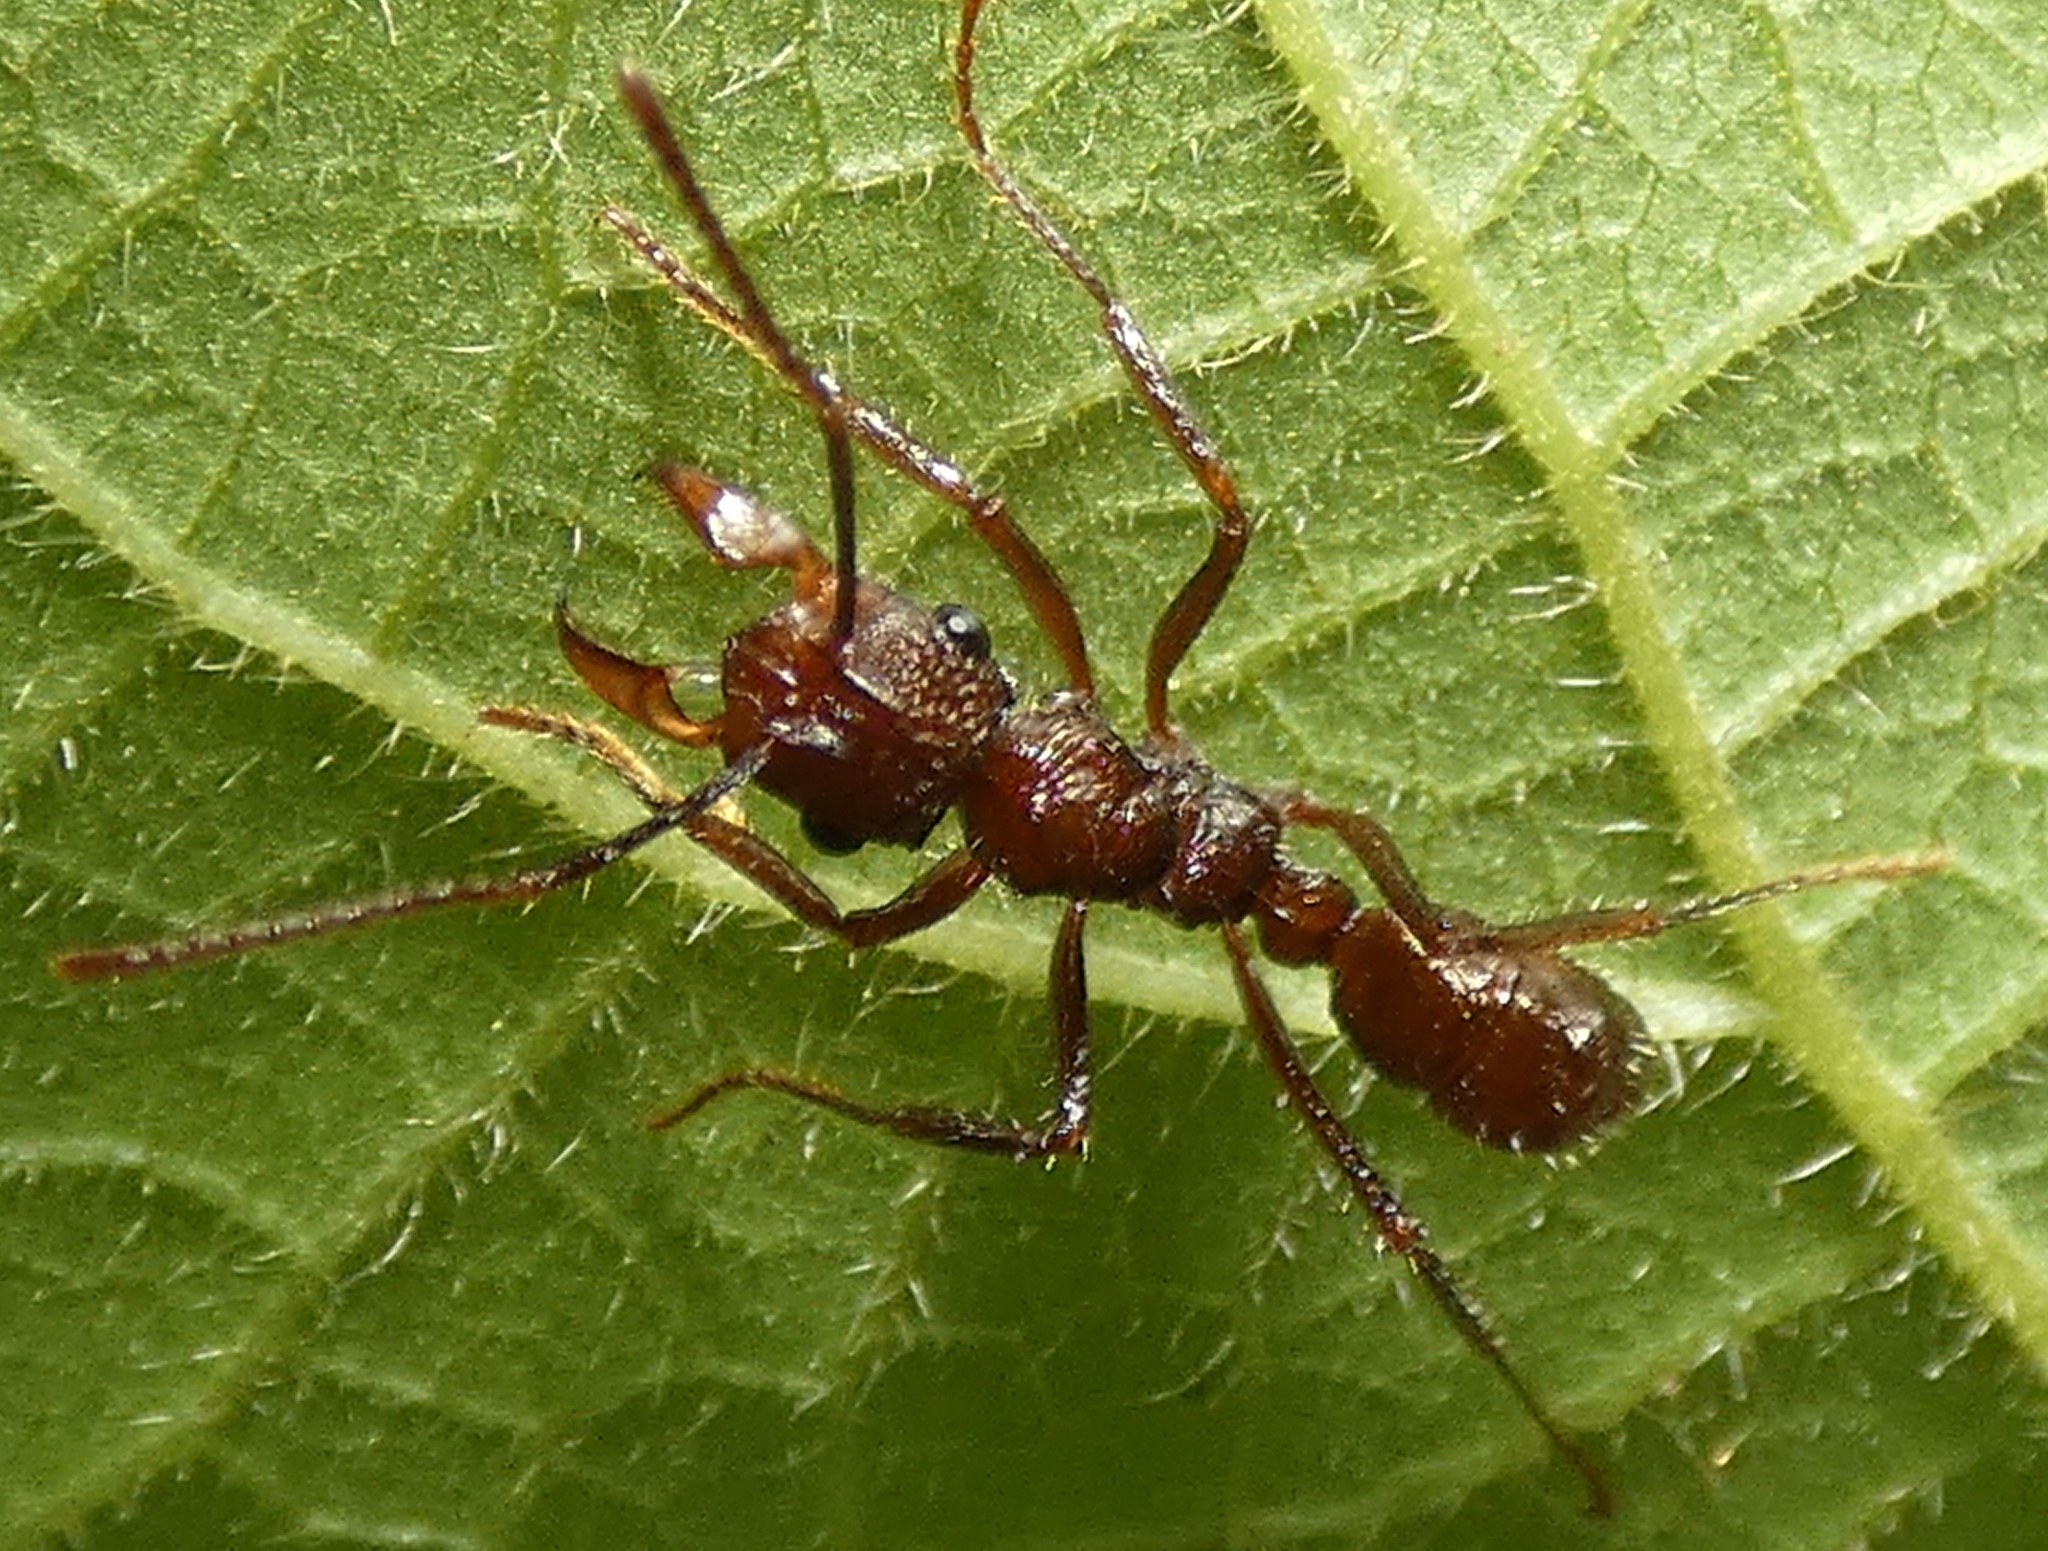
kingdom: Animalia
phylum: Arthropoda
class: Insecta
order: Hymenoptera
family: Formicidae
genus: Ectatomma
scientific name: Ectatomma tuberculatum
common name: Ant
